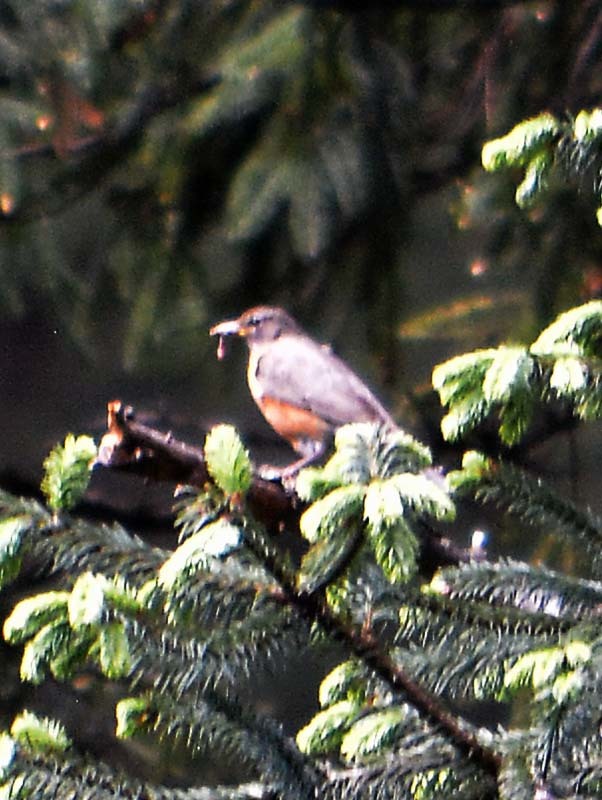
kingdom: Animalia
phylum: Chordata
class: Aves
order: Passeriformes
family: Turdidae
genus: Turdus
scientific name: Turdus migratorius
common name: American robin
